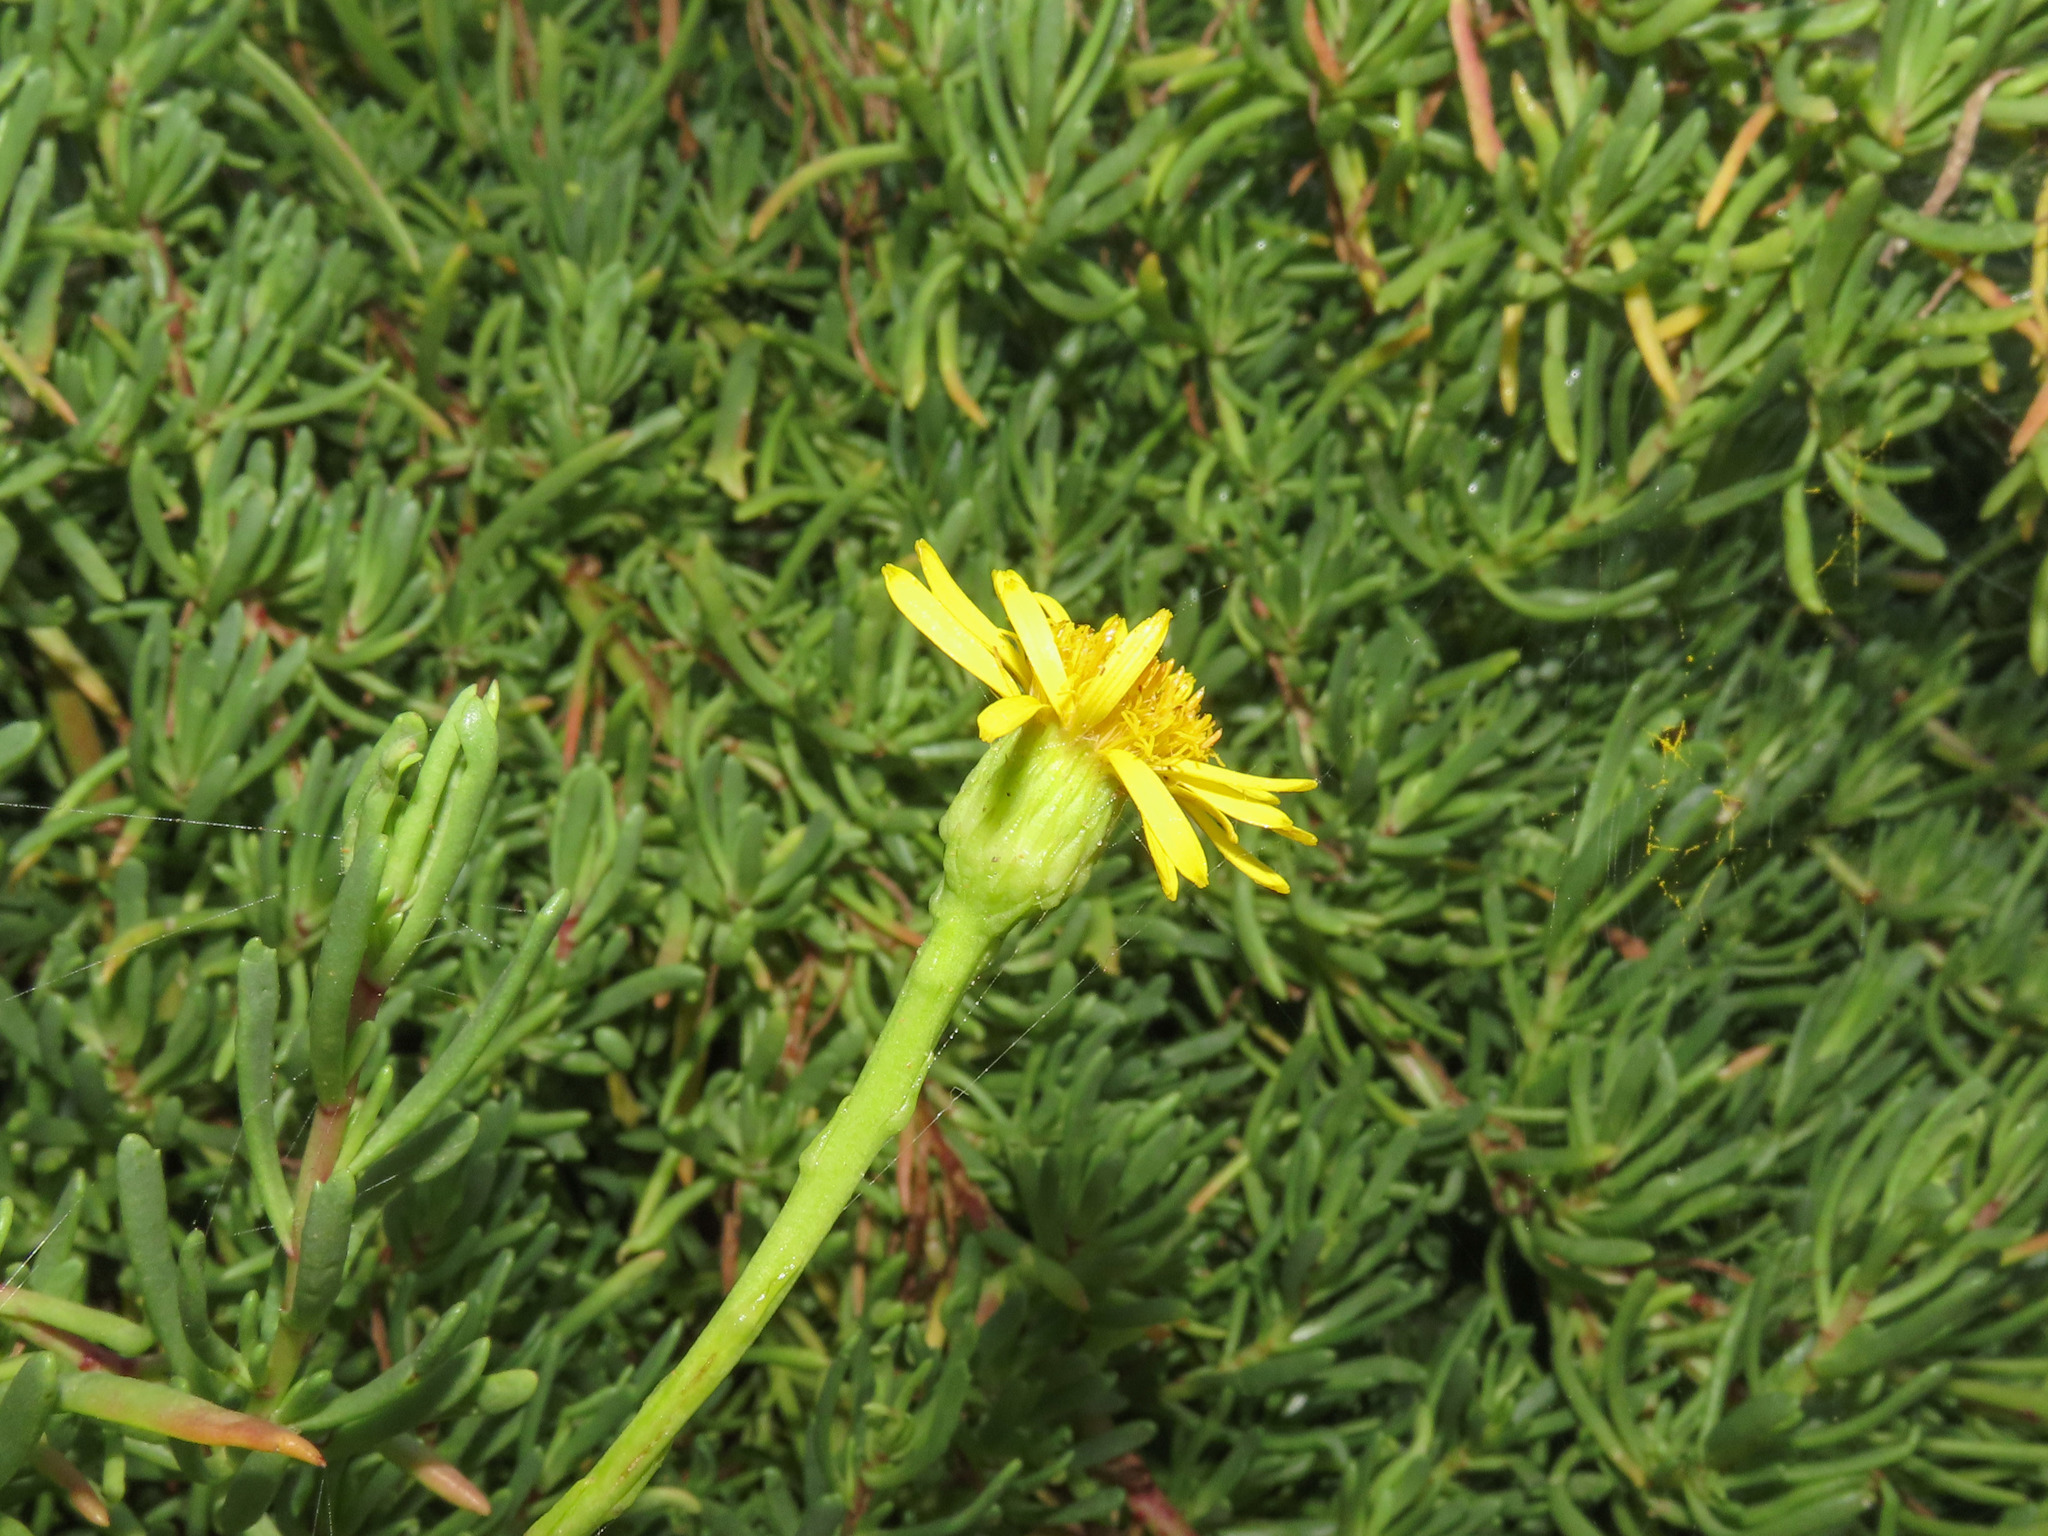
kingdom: Plantae
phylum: Tracheophyta
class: Magnoliopsida
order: Asterales
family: Asteraceae
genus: Limbarda
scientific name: Limbarda crithmoides
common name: Golden samphire
